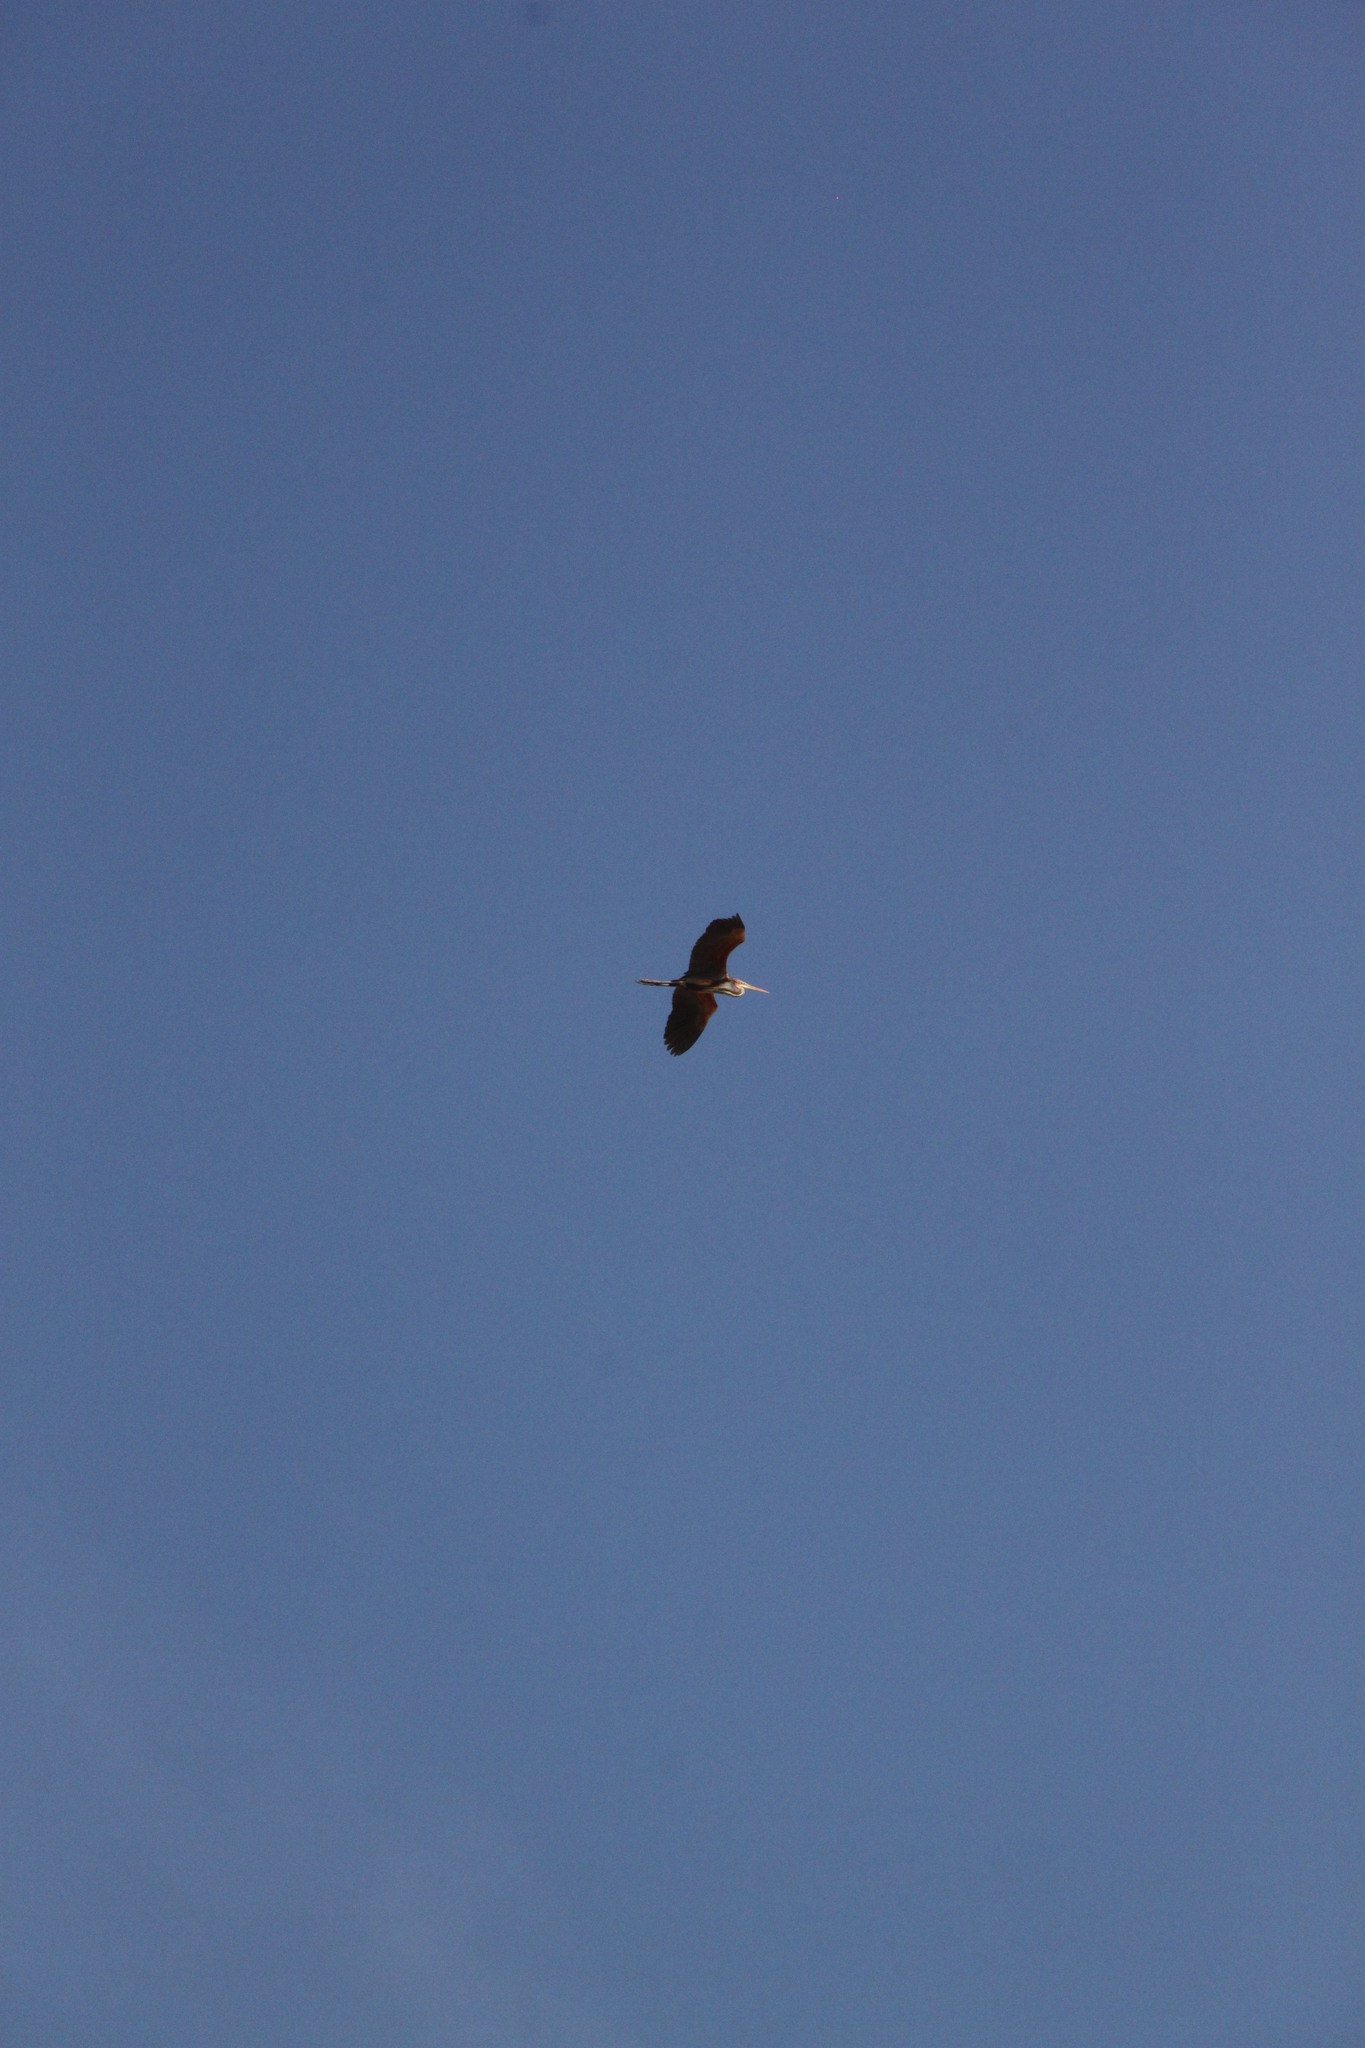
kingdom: Animalia
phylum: Chordata
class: Aves
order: Pelecaniformes
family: Ardeidae
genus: Ardea
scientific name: Ardea purpurea
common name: Purple heron
